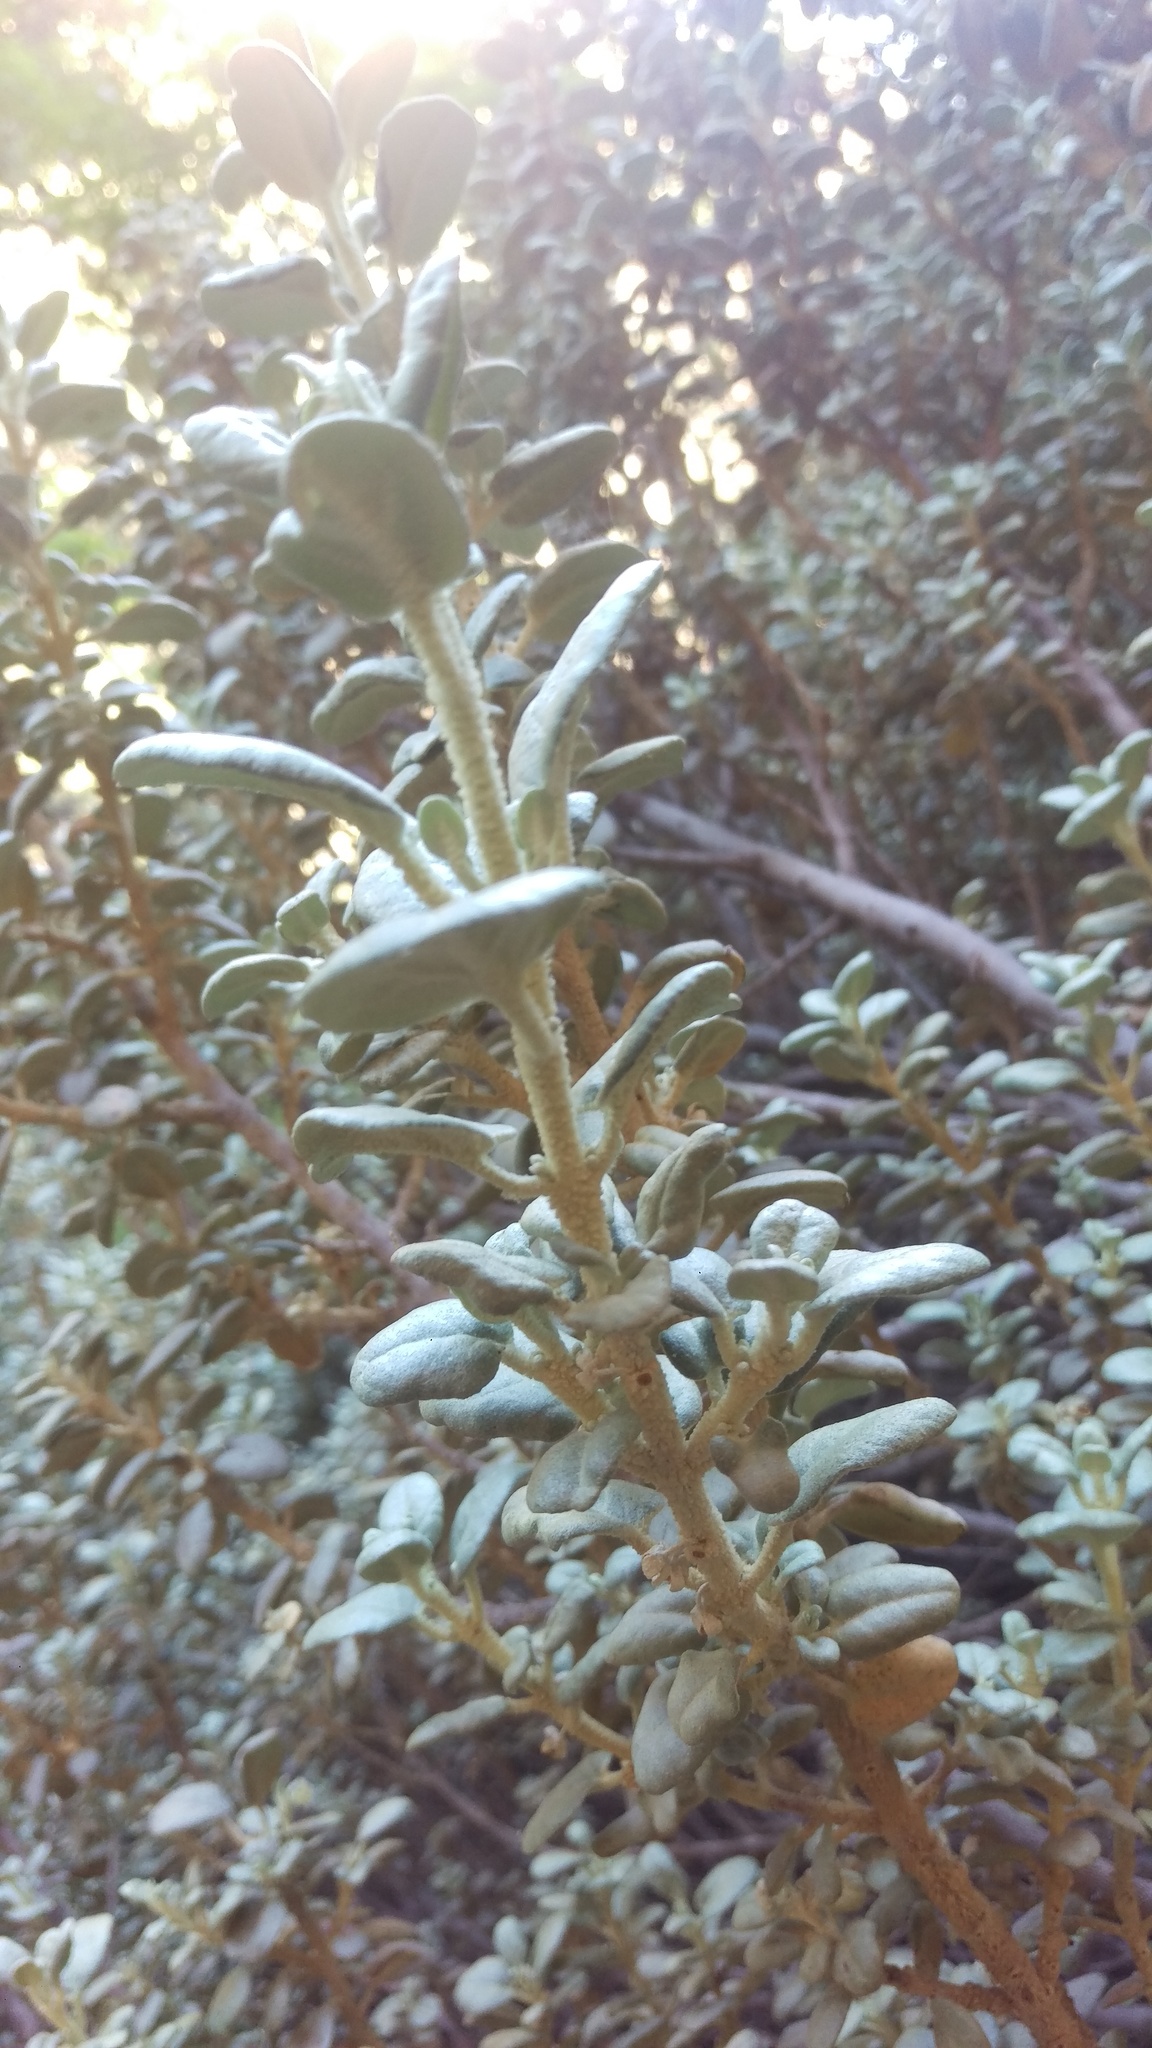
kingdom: Plantae
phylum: Tracheophyta
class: Magnoliopsida
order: Rosales
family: Elaeagnaceae
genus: Shepherdia
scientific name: Shepherdia rotundifolia
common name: Silverscale
